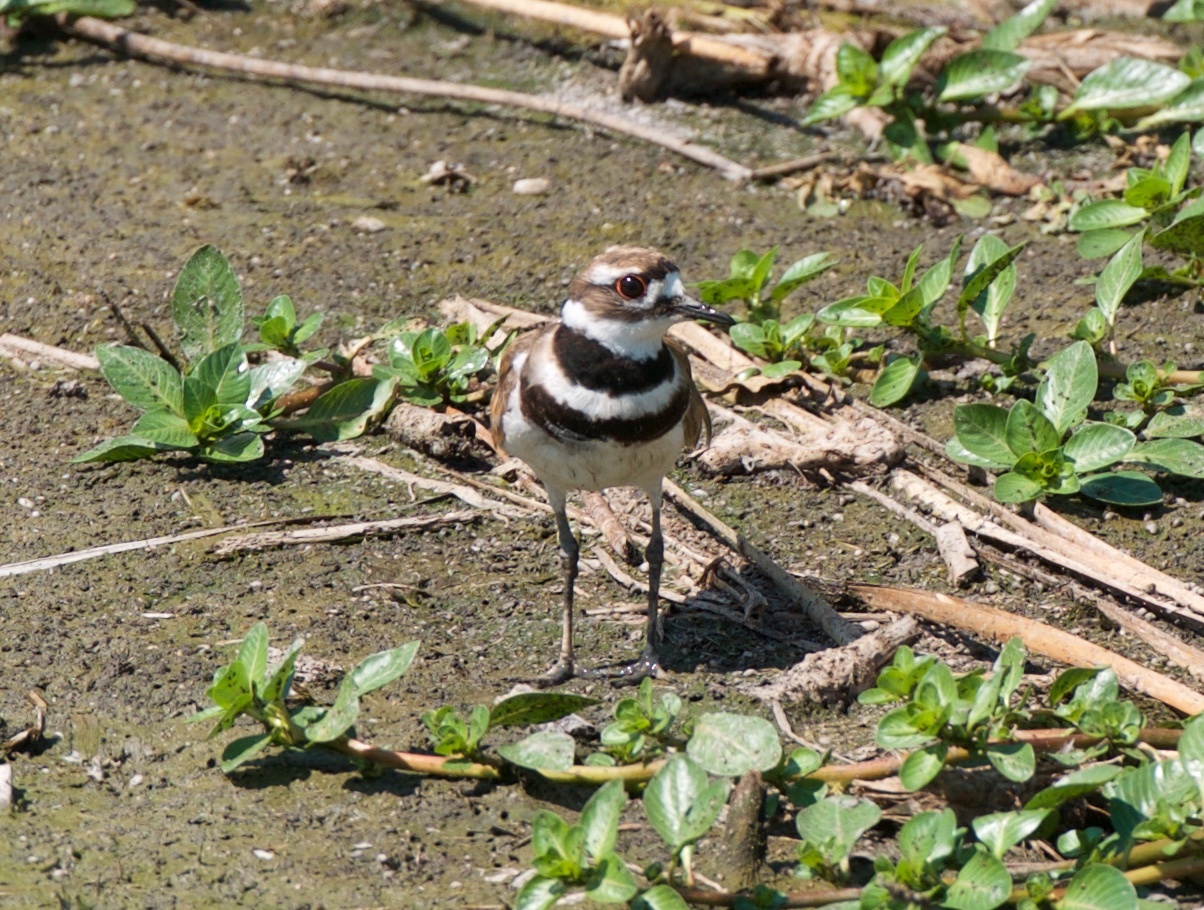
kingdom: Animalia
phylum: Chordata
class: Aves
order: Charadriiformes
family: Charadriidae
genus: Charadrius
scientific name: Charadrius vociferus
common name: Killdeer
